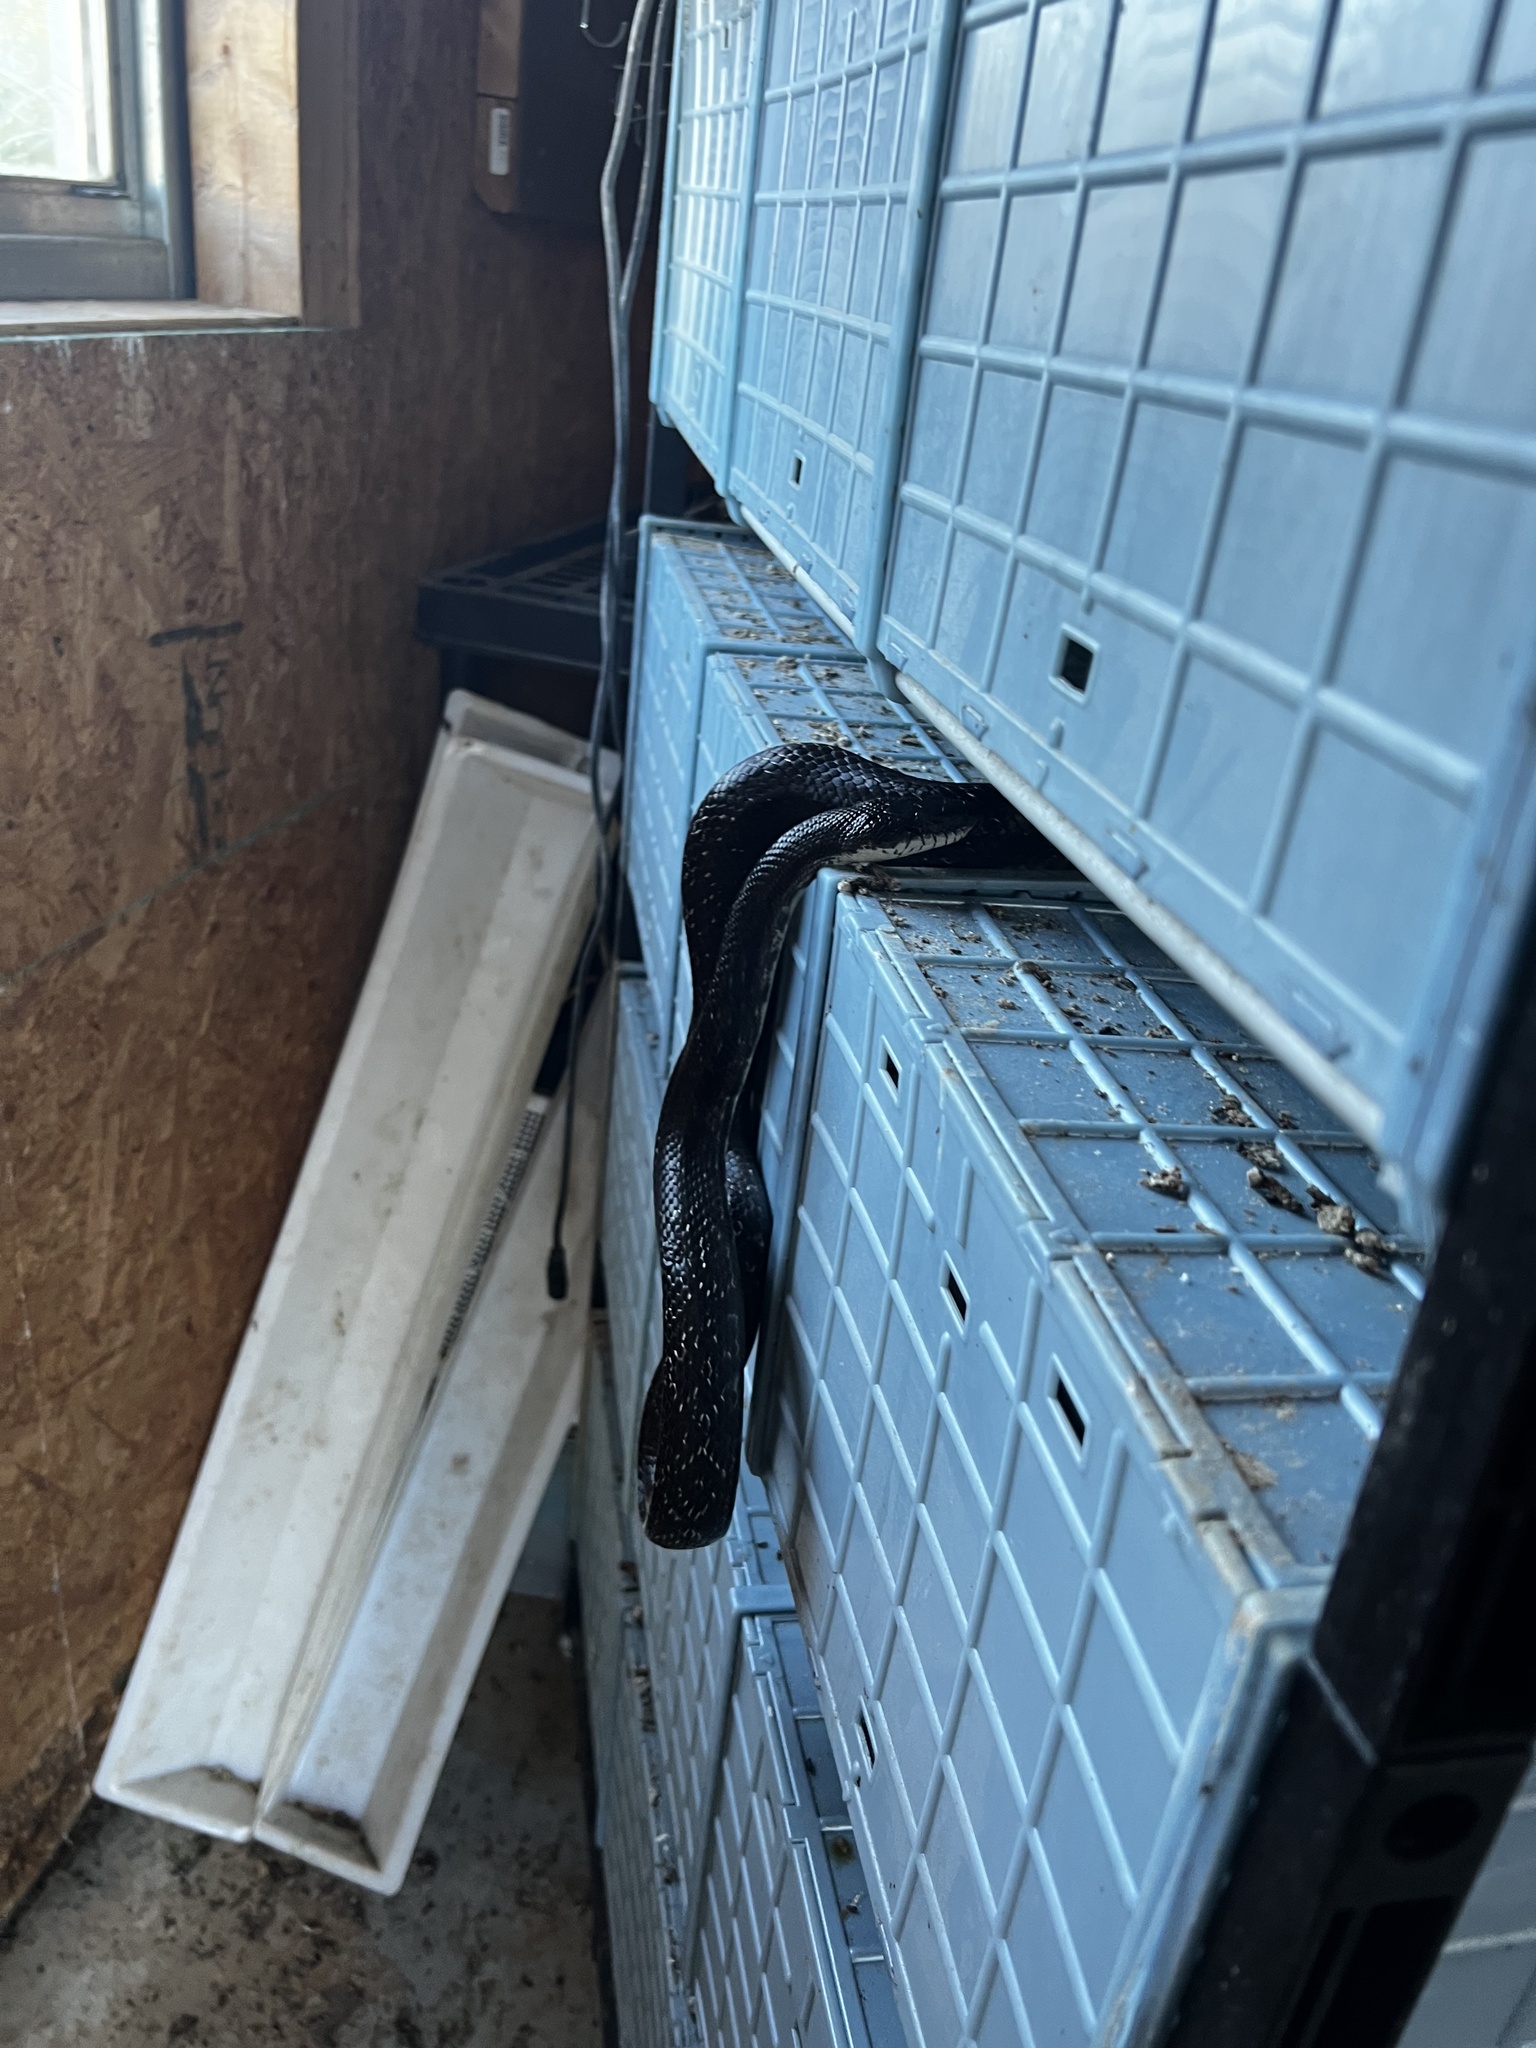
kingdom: Animalia
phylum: Chordata
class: Squamata
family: Colubridae
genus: Pantherophis
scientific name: Pantherophis
